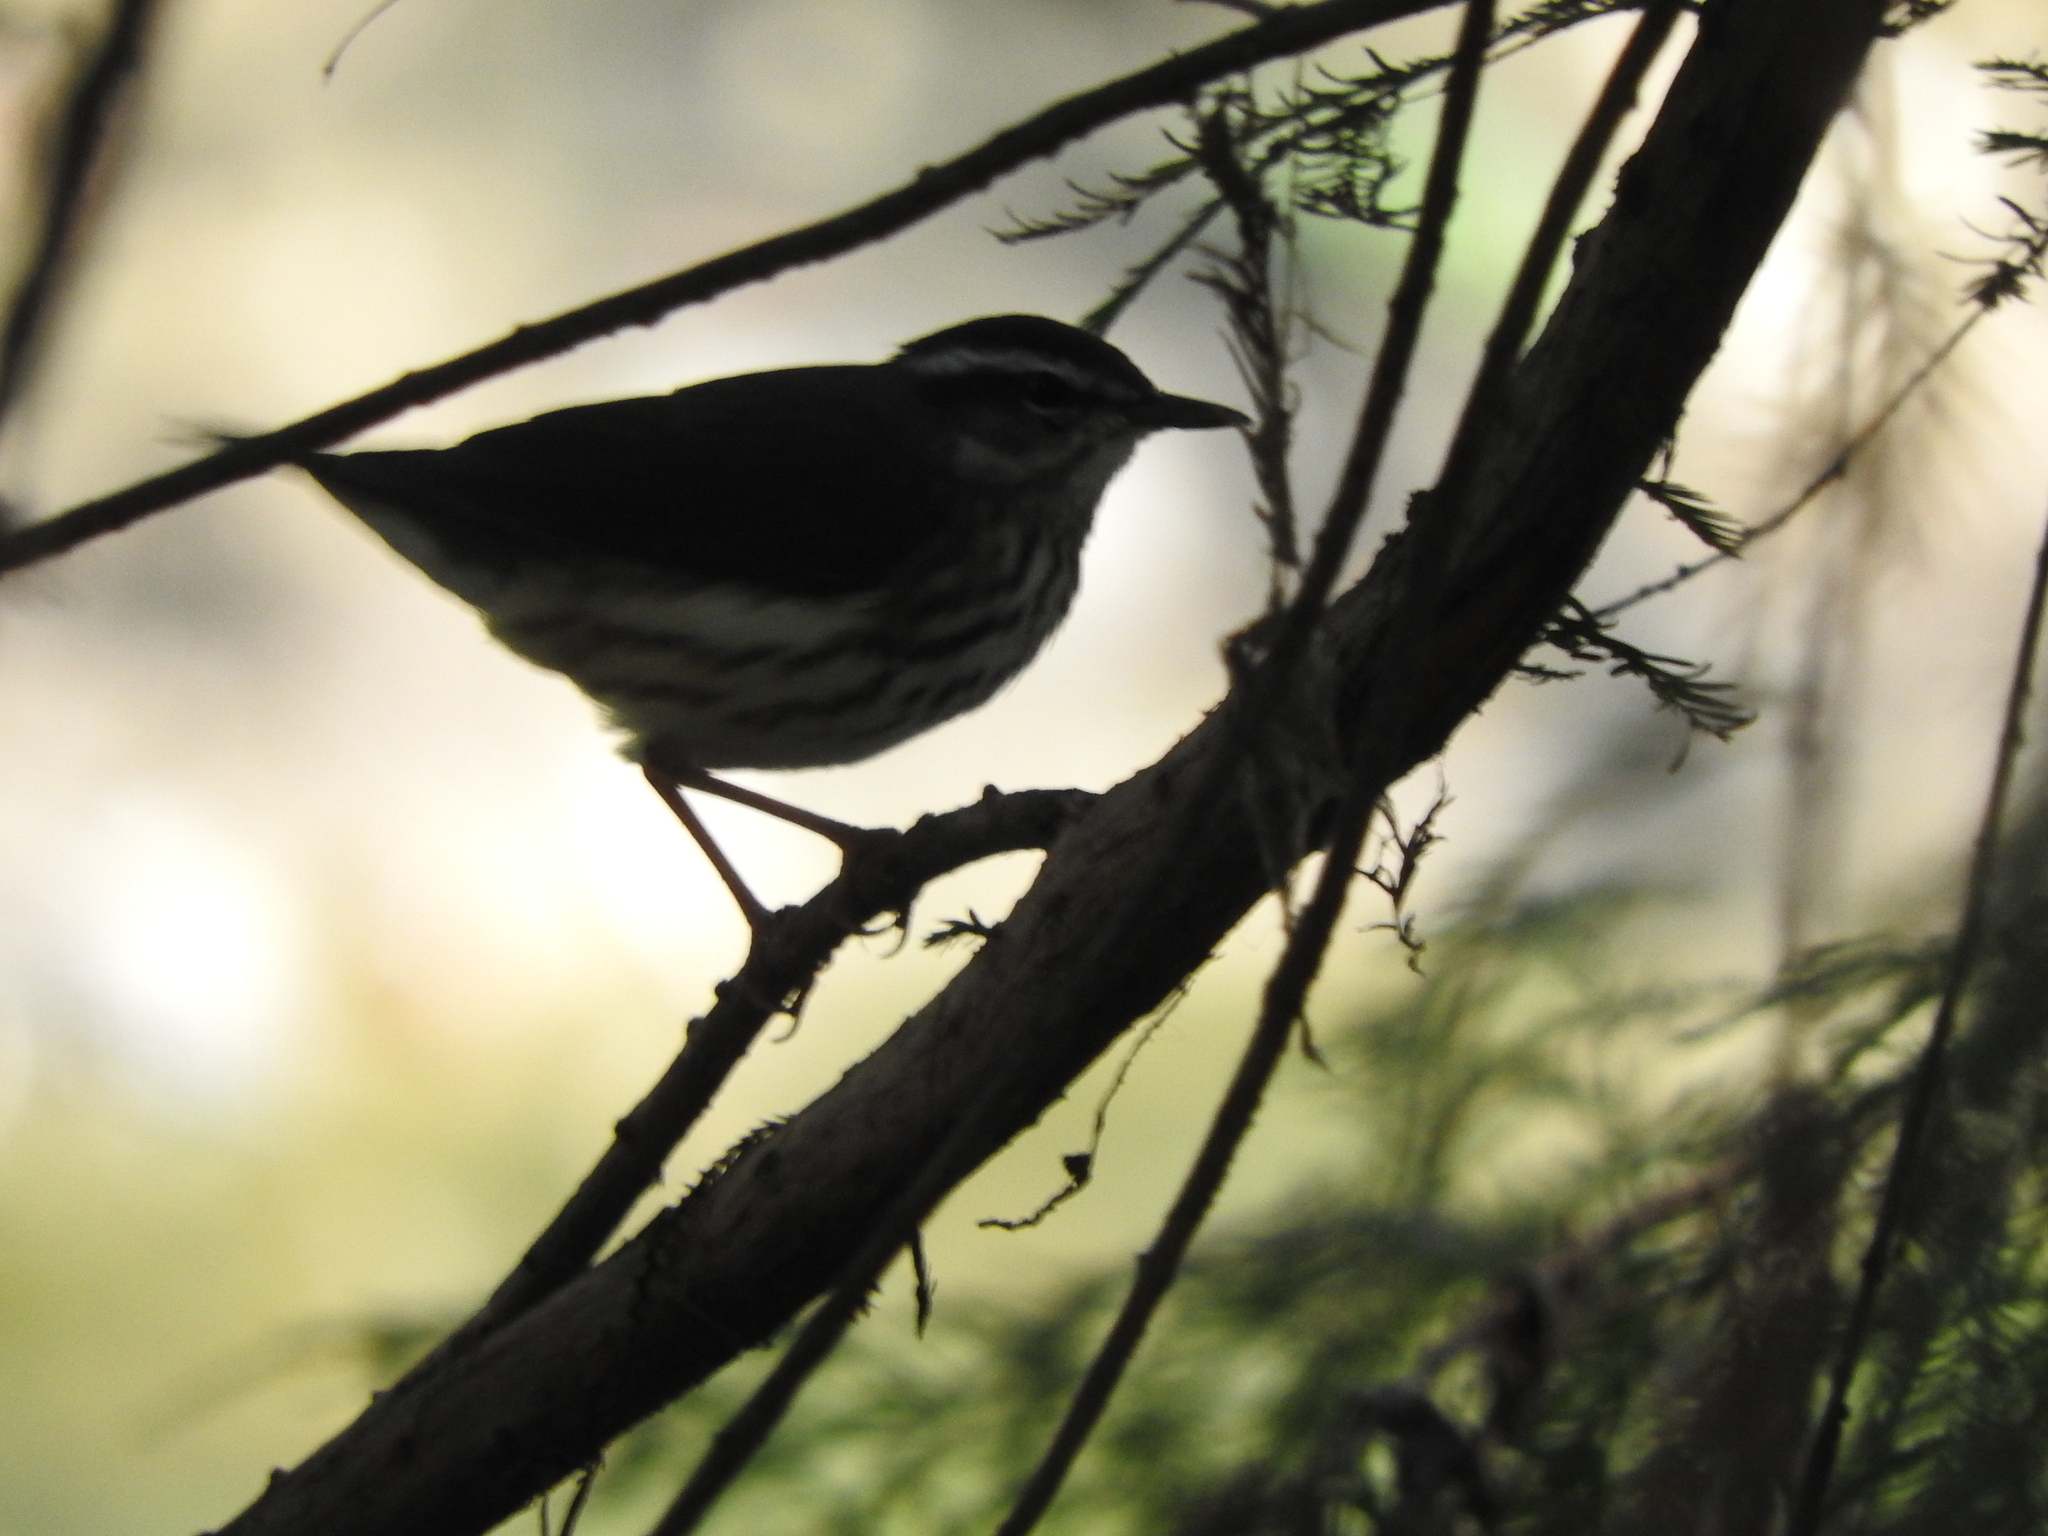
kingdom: Animalia
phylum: Chordata
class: Aves
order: Passeriformes
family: Parulidae
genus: Parkesia
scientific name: Parkesia motacilla
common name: Louisiana waterthrush
